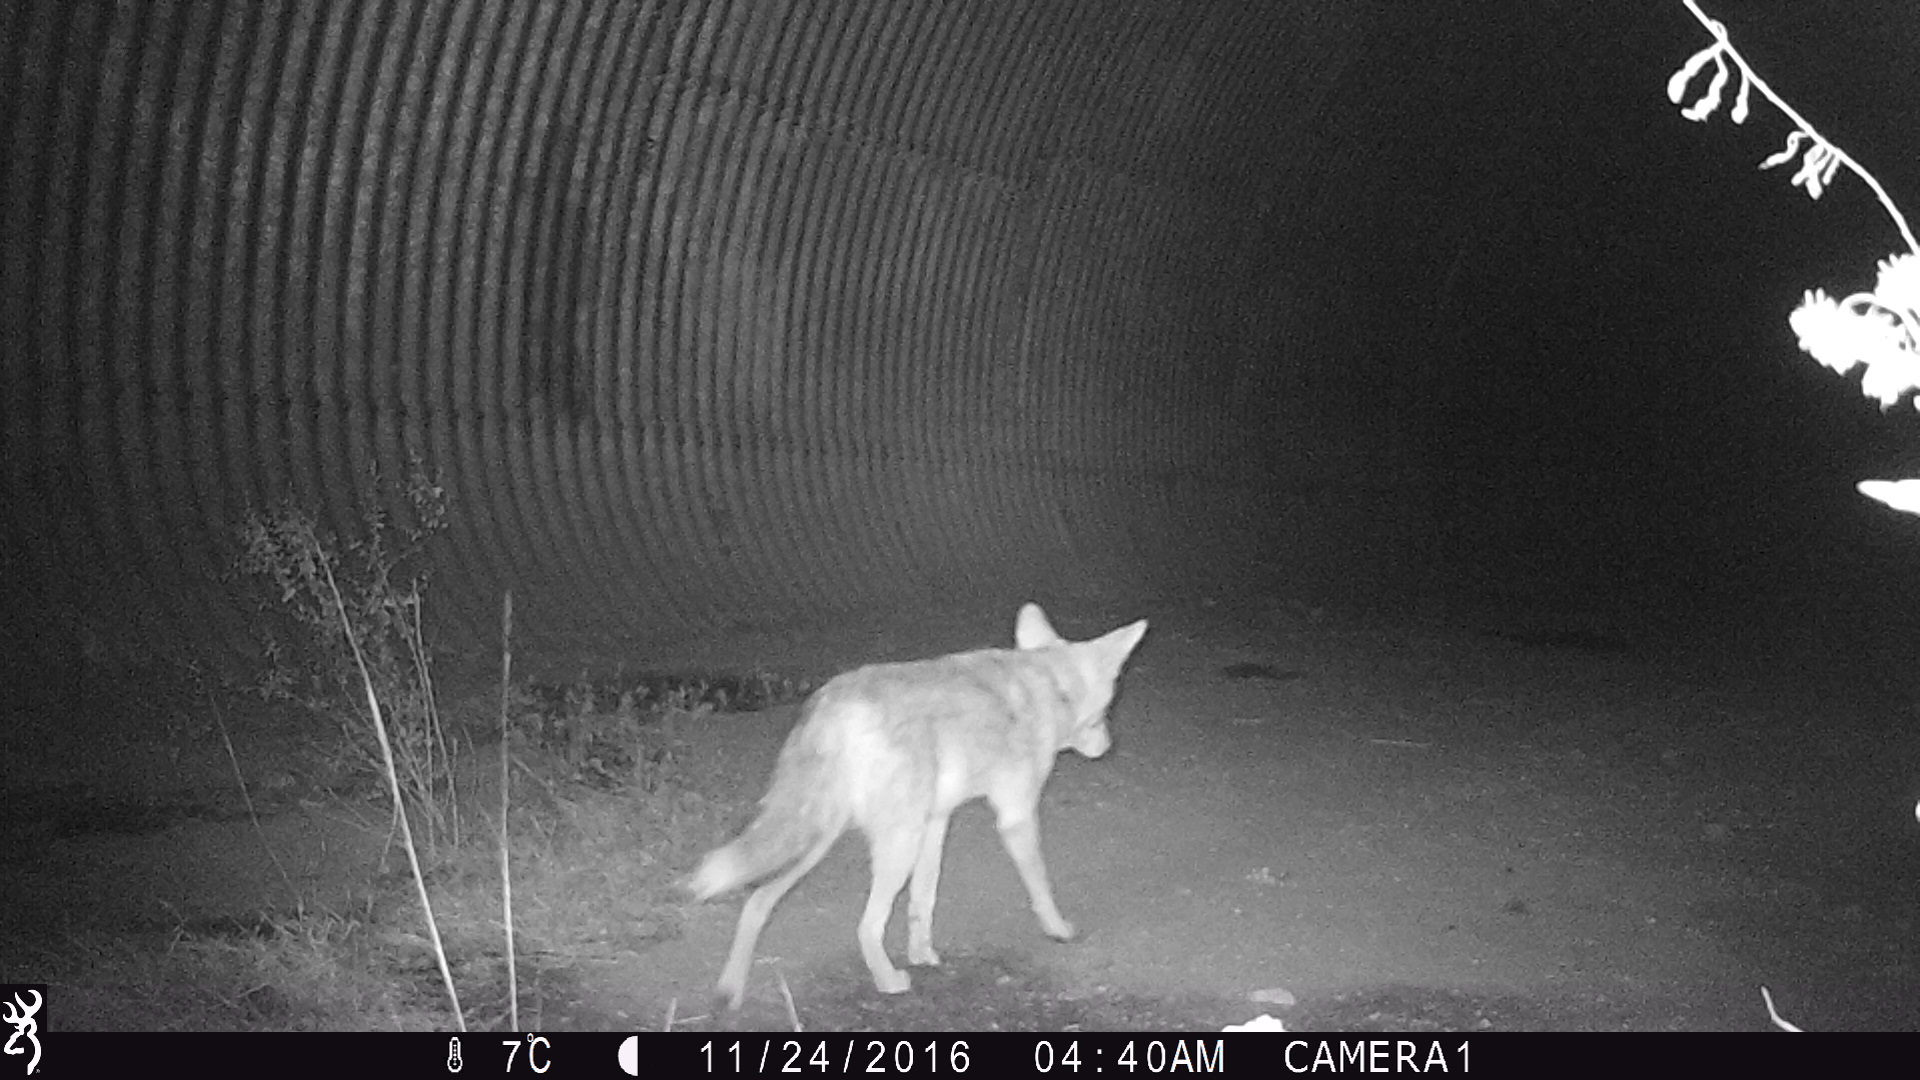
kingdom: Animalia
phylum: Chordata
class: Mammalia
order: Carnivora
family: Canidae
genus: Canis
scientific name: Canis latrans
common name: Coyote
